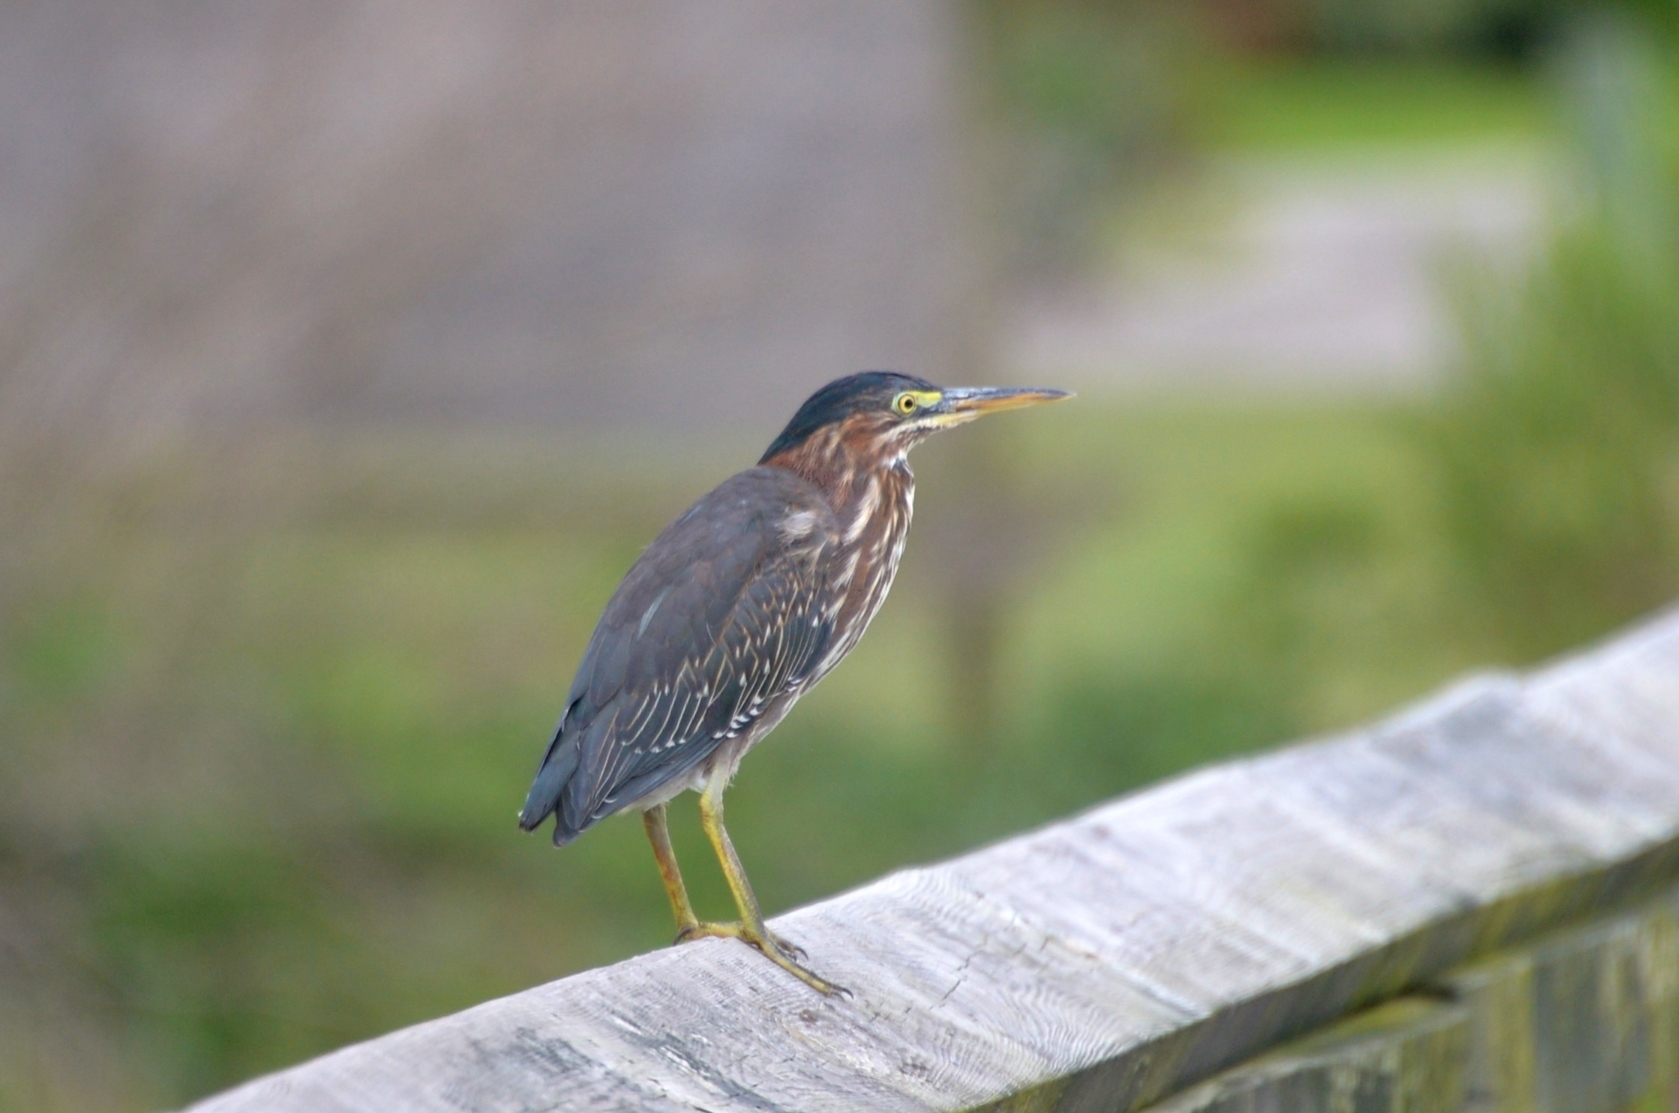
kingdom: Animalia
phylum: Chordata
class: Aves
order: Pelecaniformes
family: Ardeidae
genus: Butorides
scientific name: Butorides virescens
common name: Green heron
